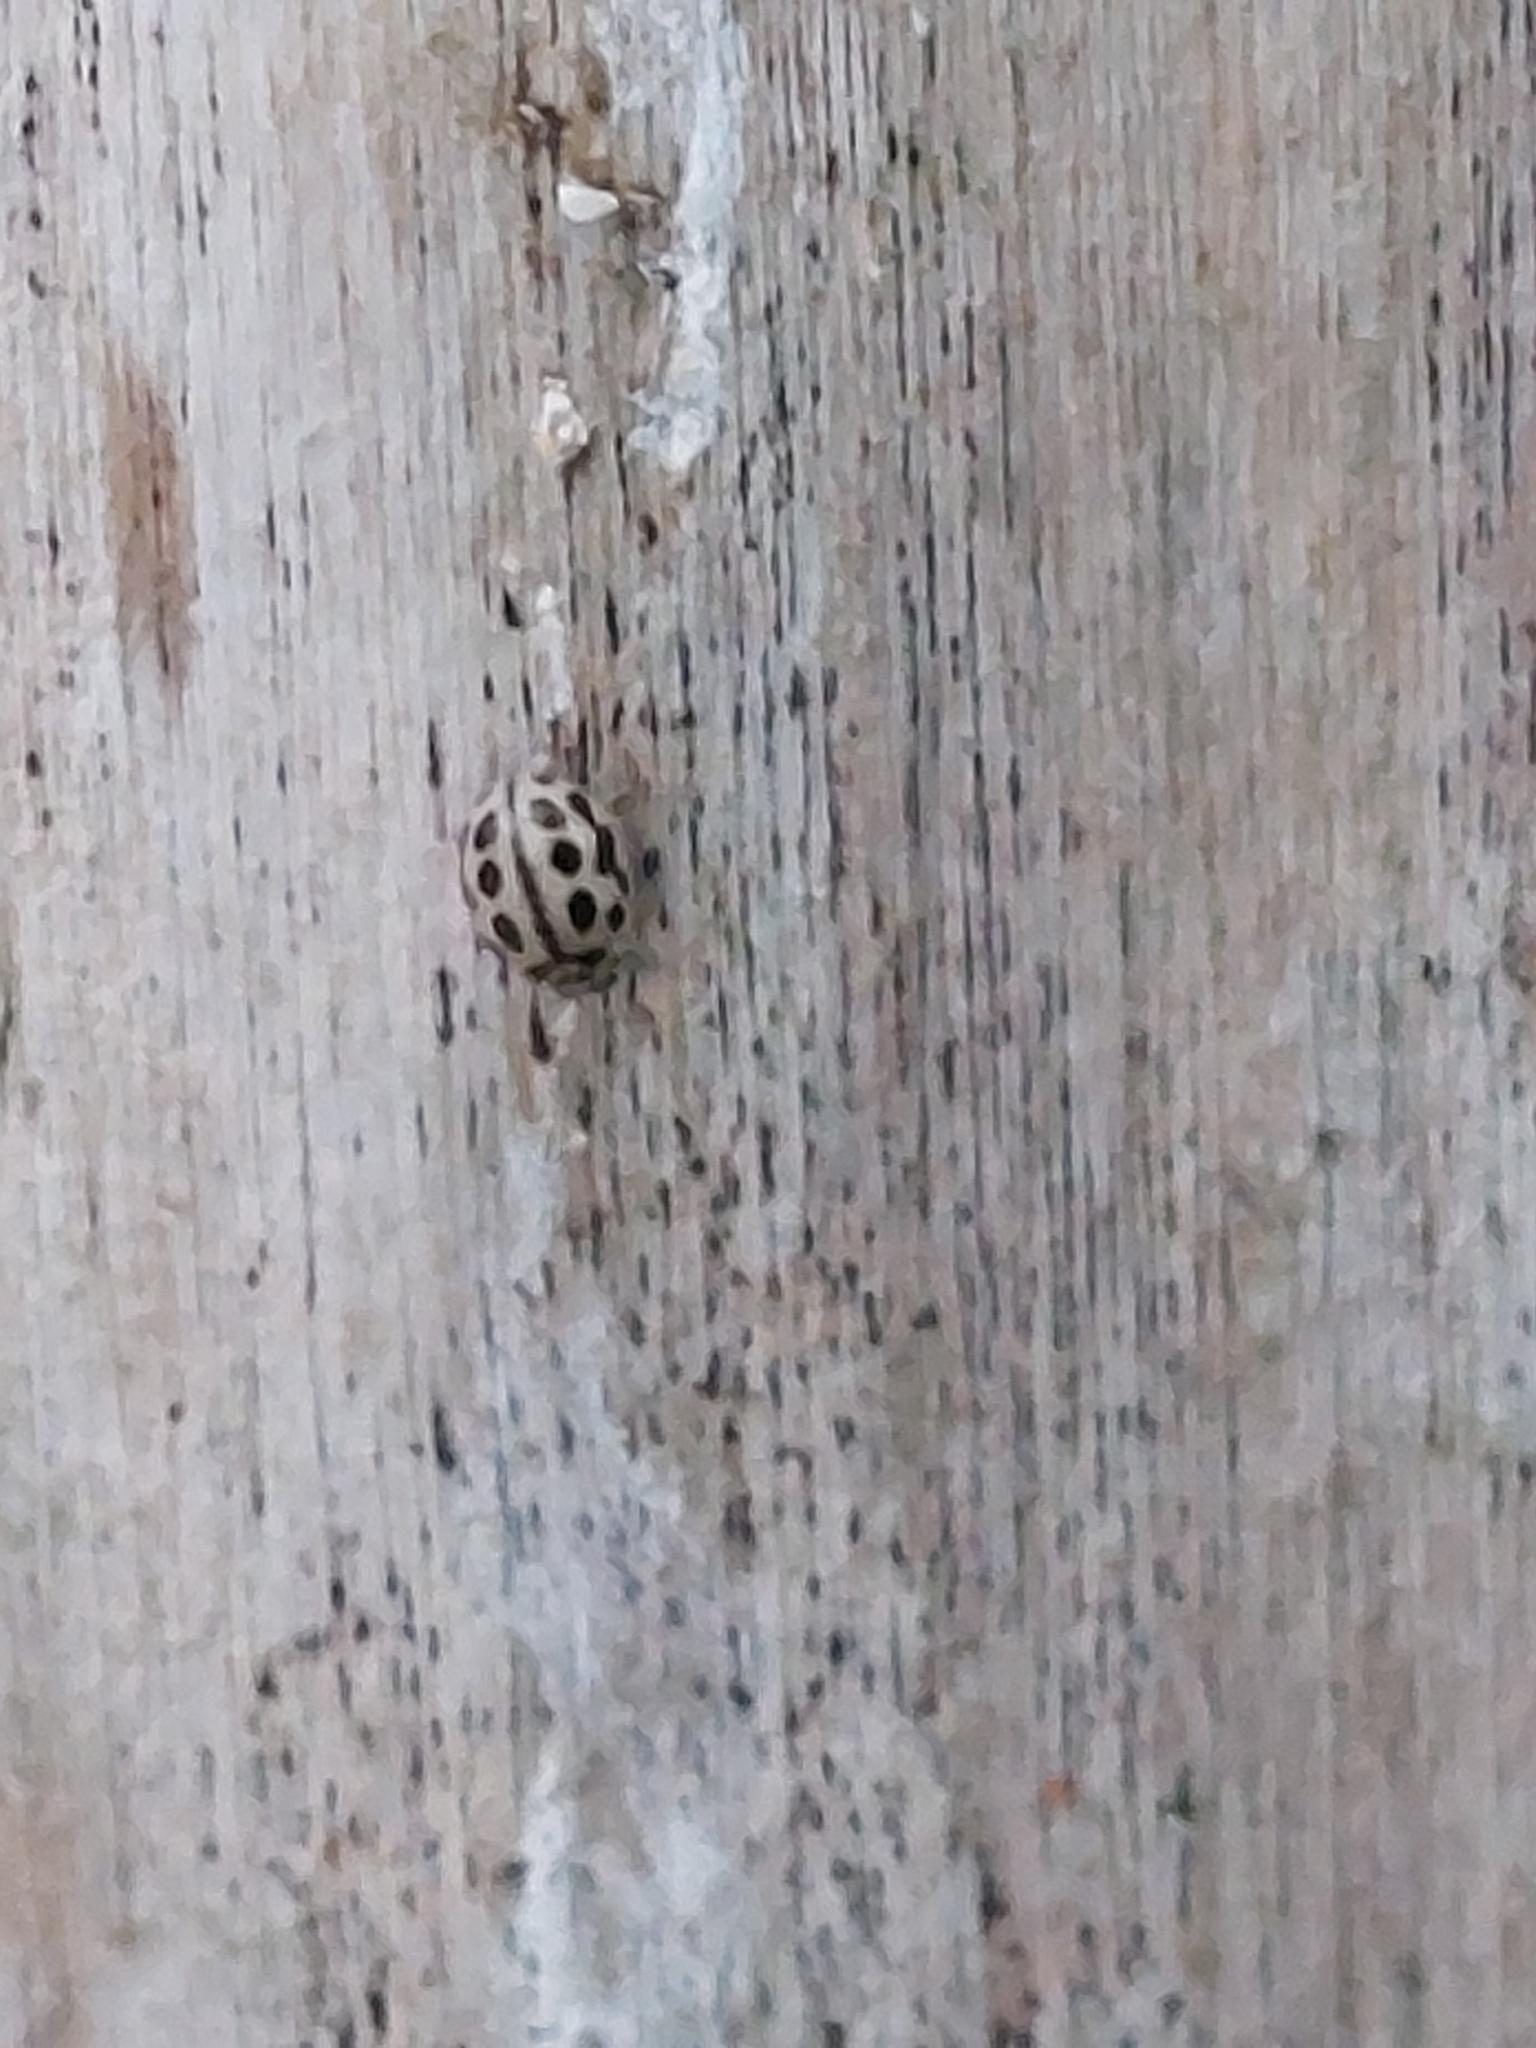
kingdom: Animalia
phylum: Arthropoda
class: Insecta
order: Coleoptera
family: Coccinellidae
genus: Tytthaspis
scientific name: Tytthaspis sedecimpunctata
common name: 16-spot ladybird
